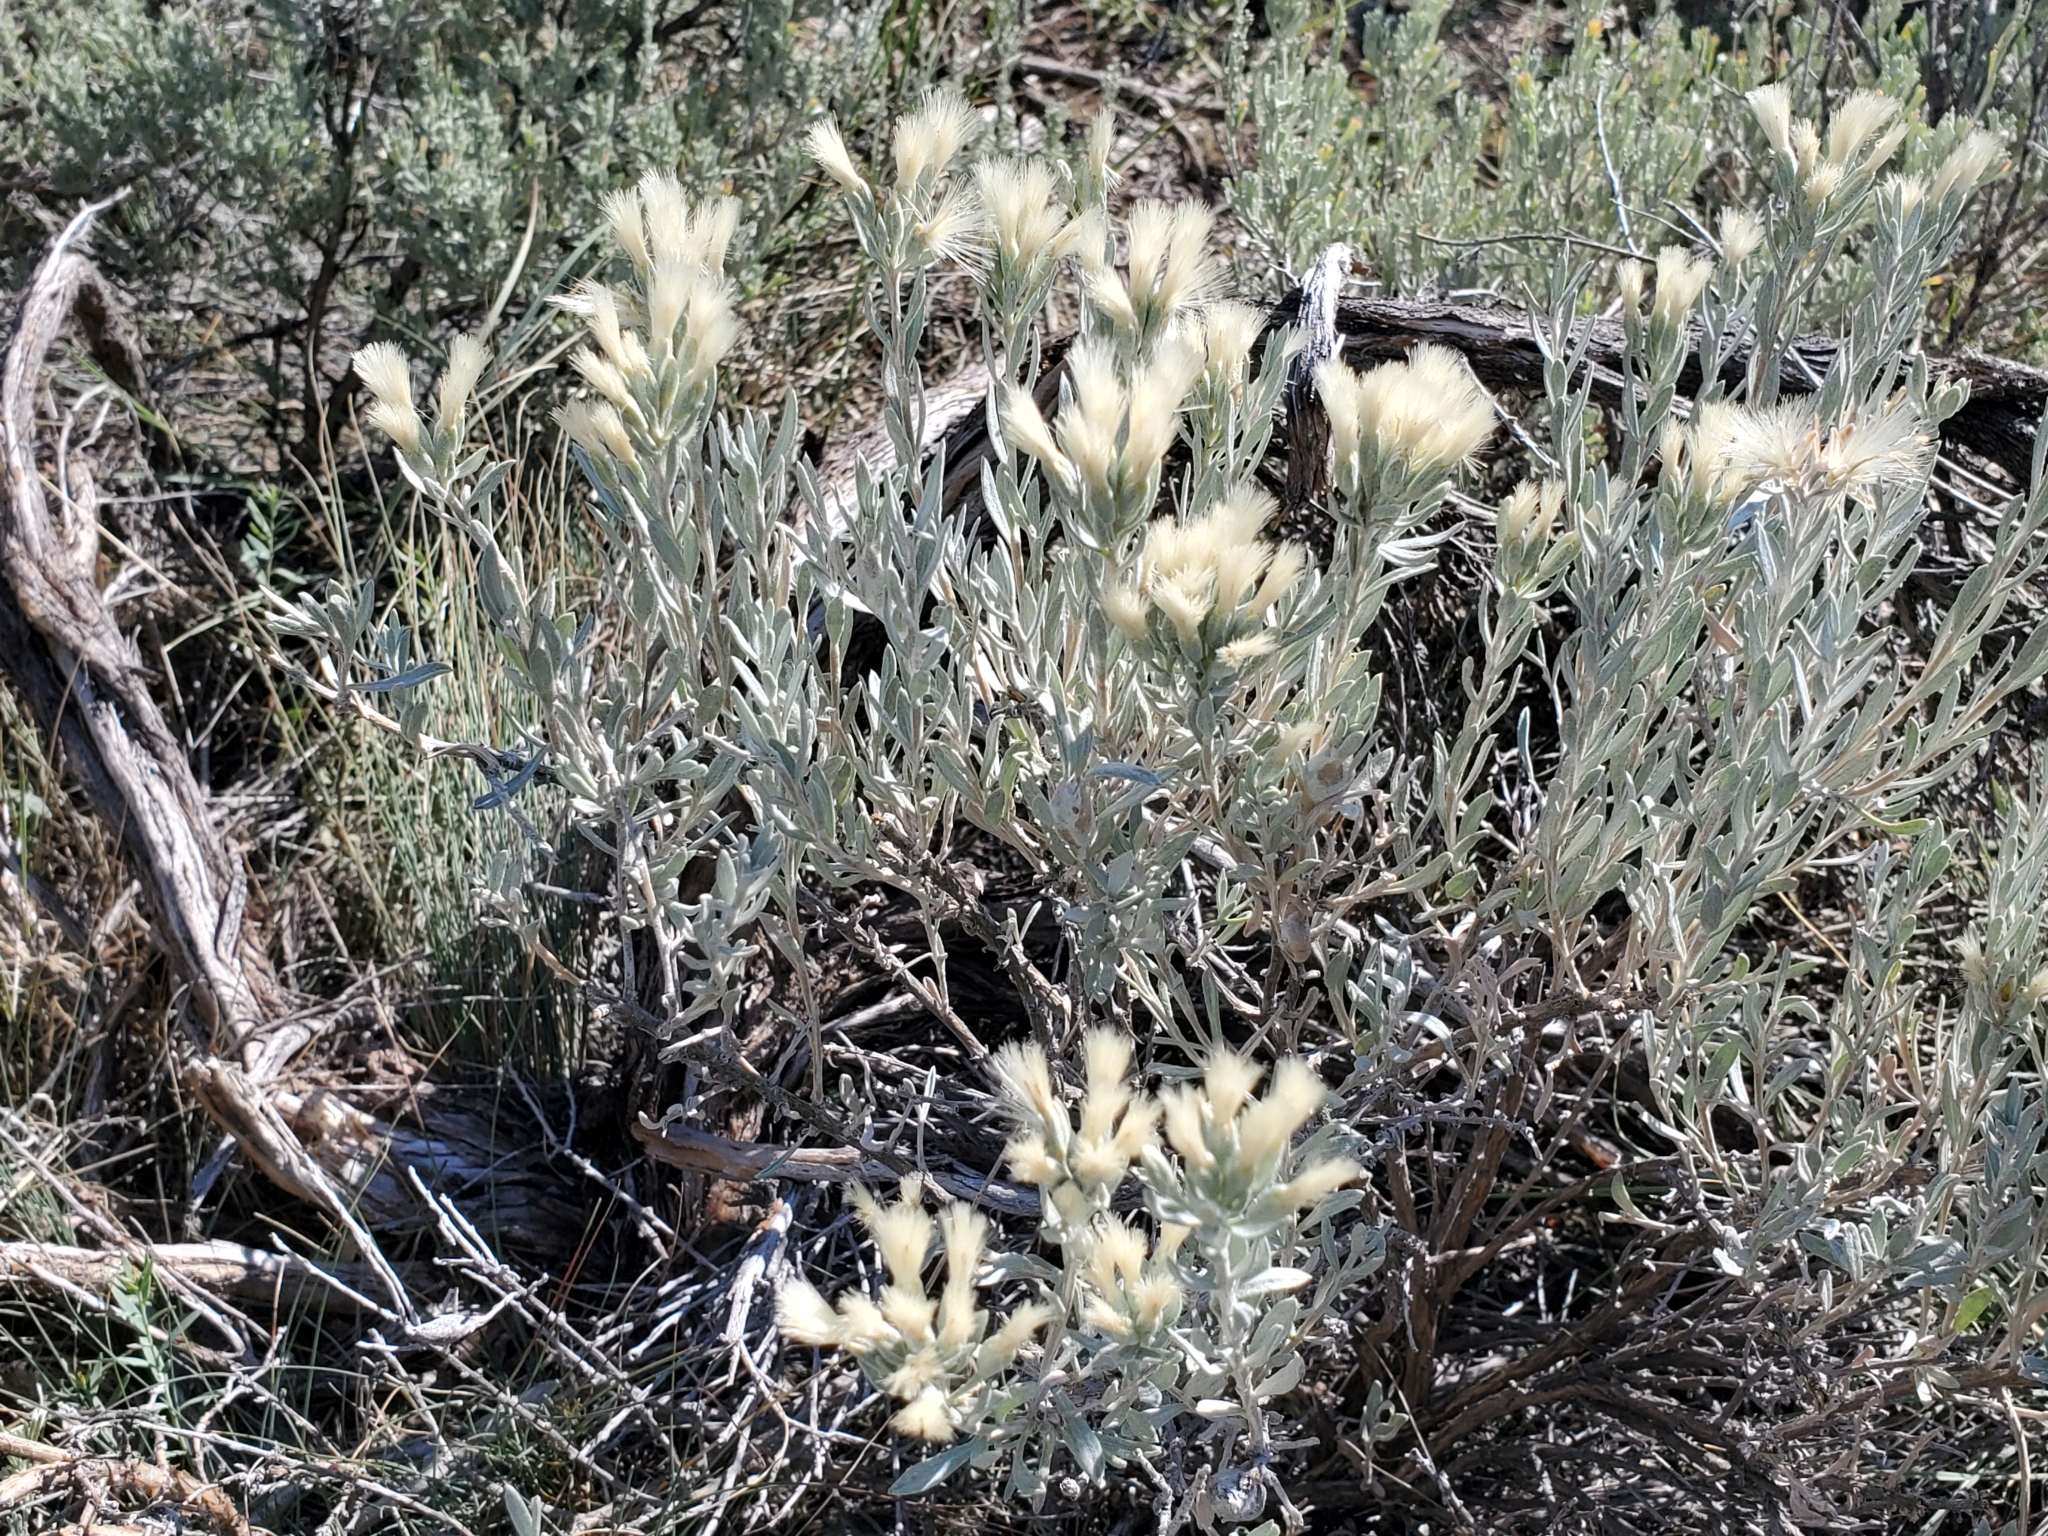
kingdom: Plantae
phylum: Tracheophyta
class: Magnoliopsida
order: Asterales
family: Asteraceae
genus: Tetradymia
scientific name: Tetradymia canescens
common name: Spineless horsebrush
